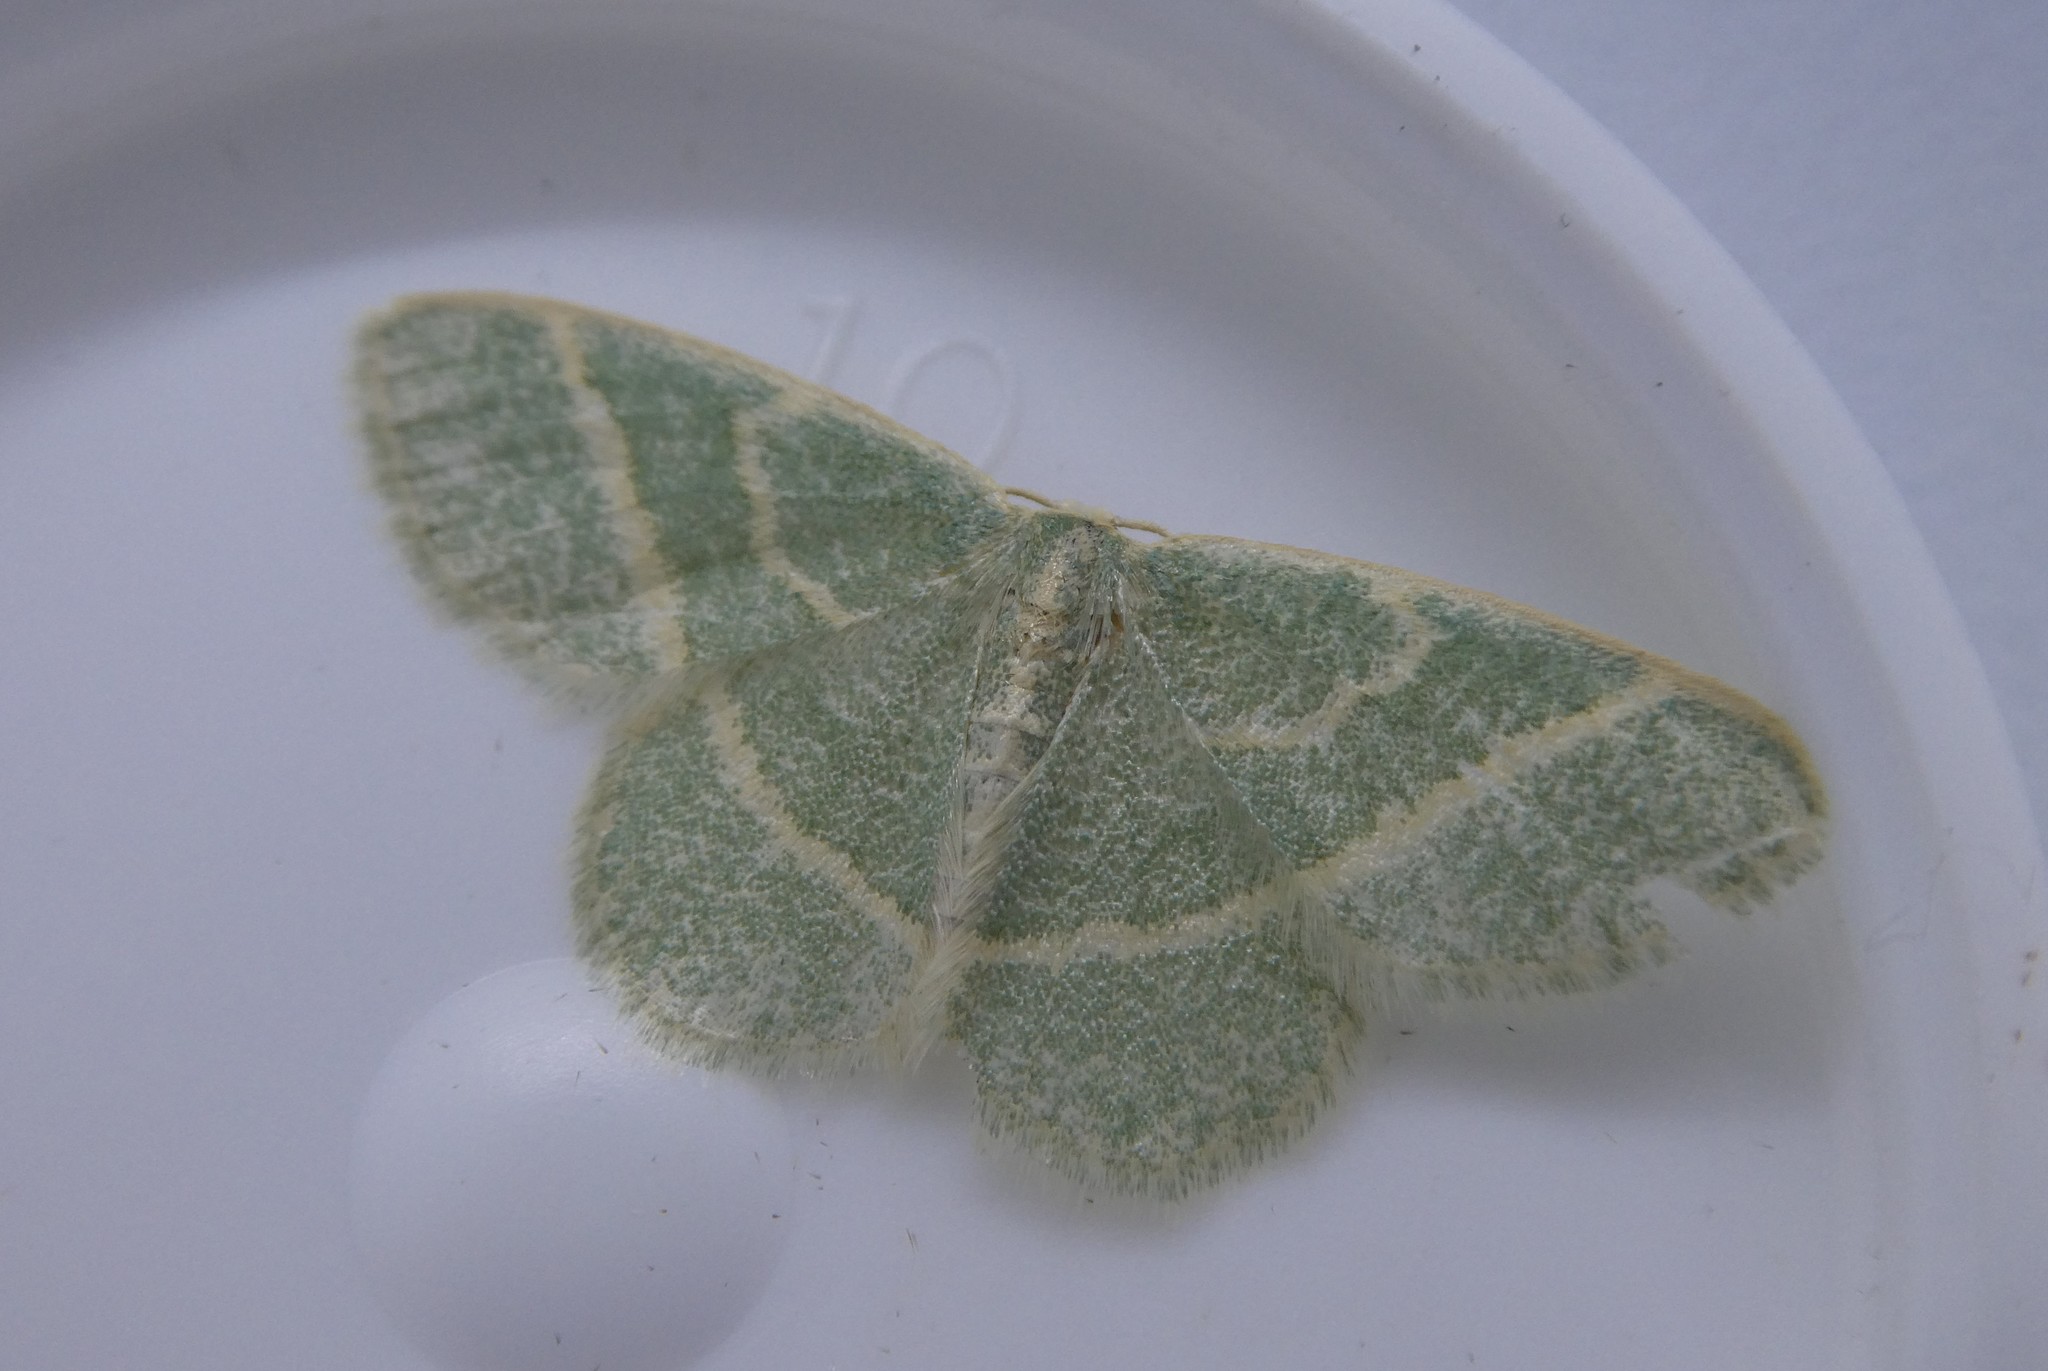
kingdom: Animalia
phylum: Arthropoda
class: Insecta
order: Lepidoptera
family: Geometridae
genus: Chlorochlamys
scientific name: Chlorochlamys chloroleucaria
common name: Blackberry looper
